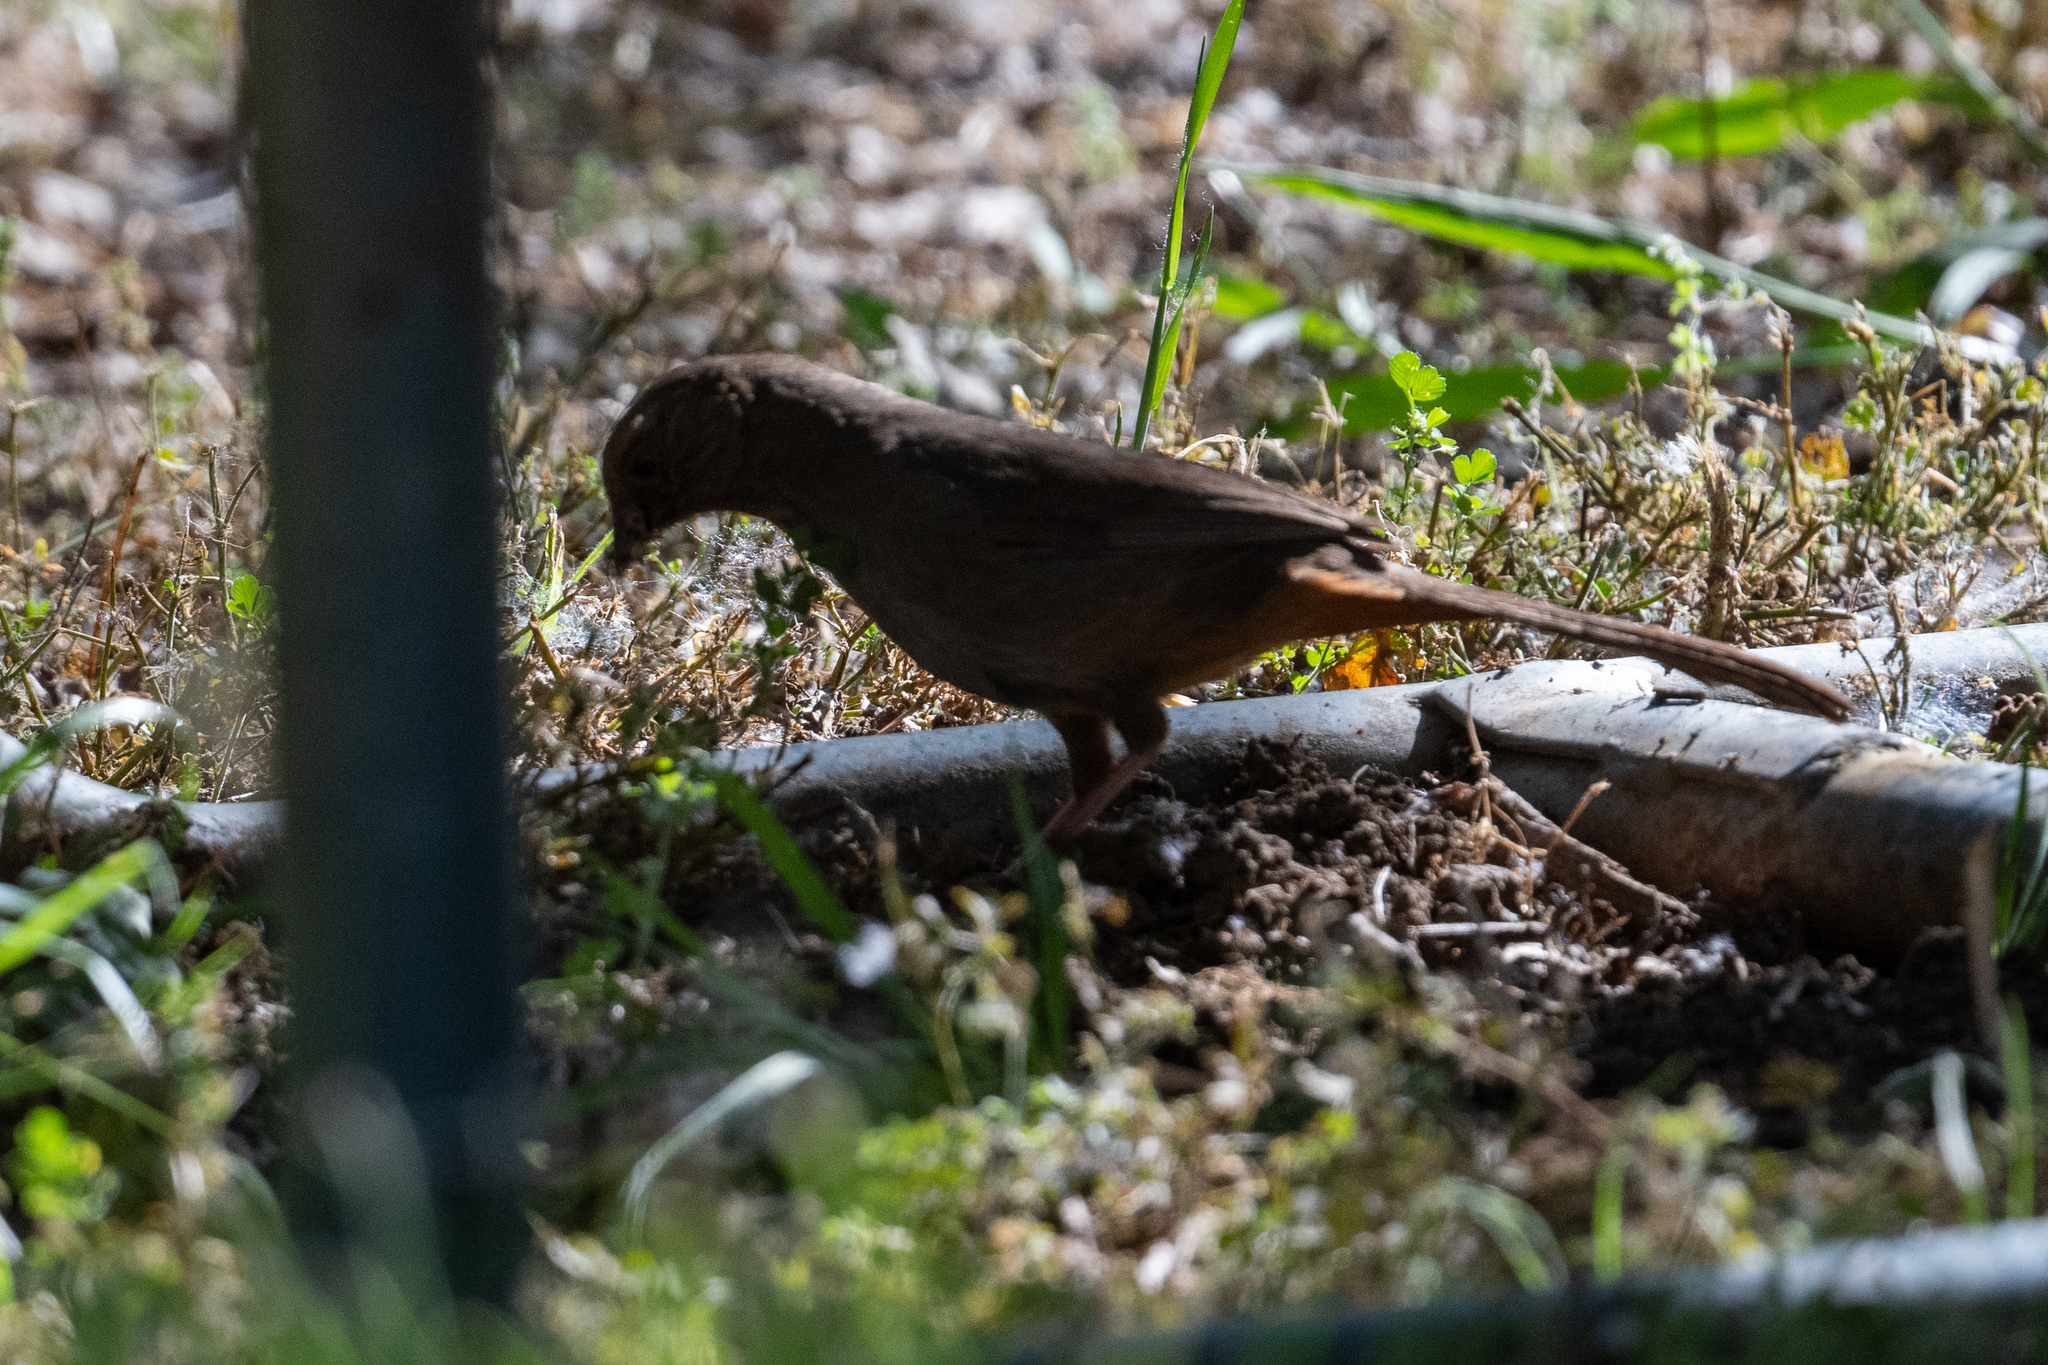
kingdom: Animalia
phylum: Chordata
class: Aves
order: Passeriformes
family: Passerellidae
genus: Melozone
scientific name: Melozone crissalis
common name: California towhee
